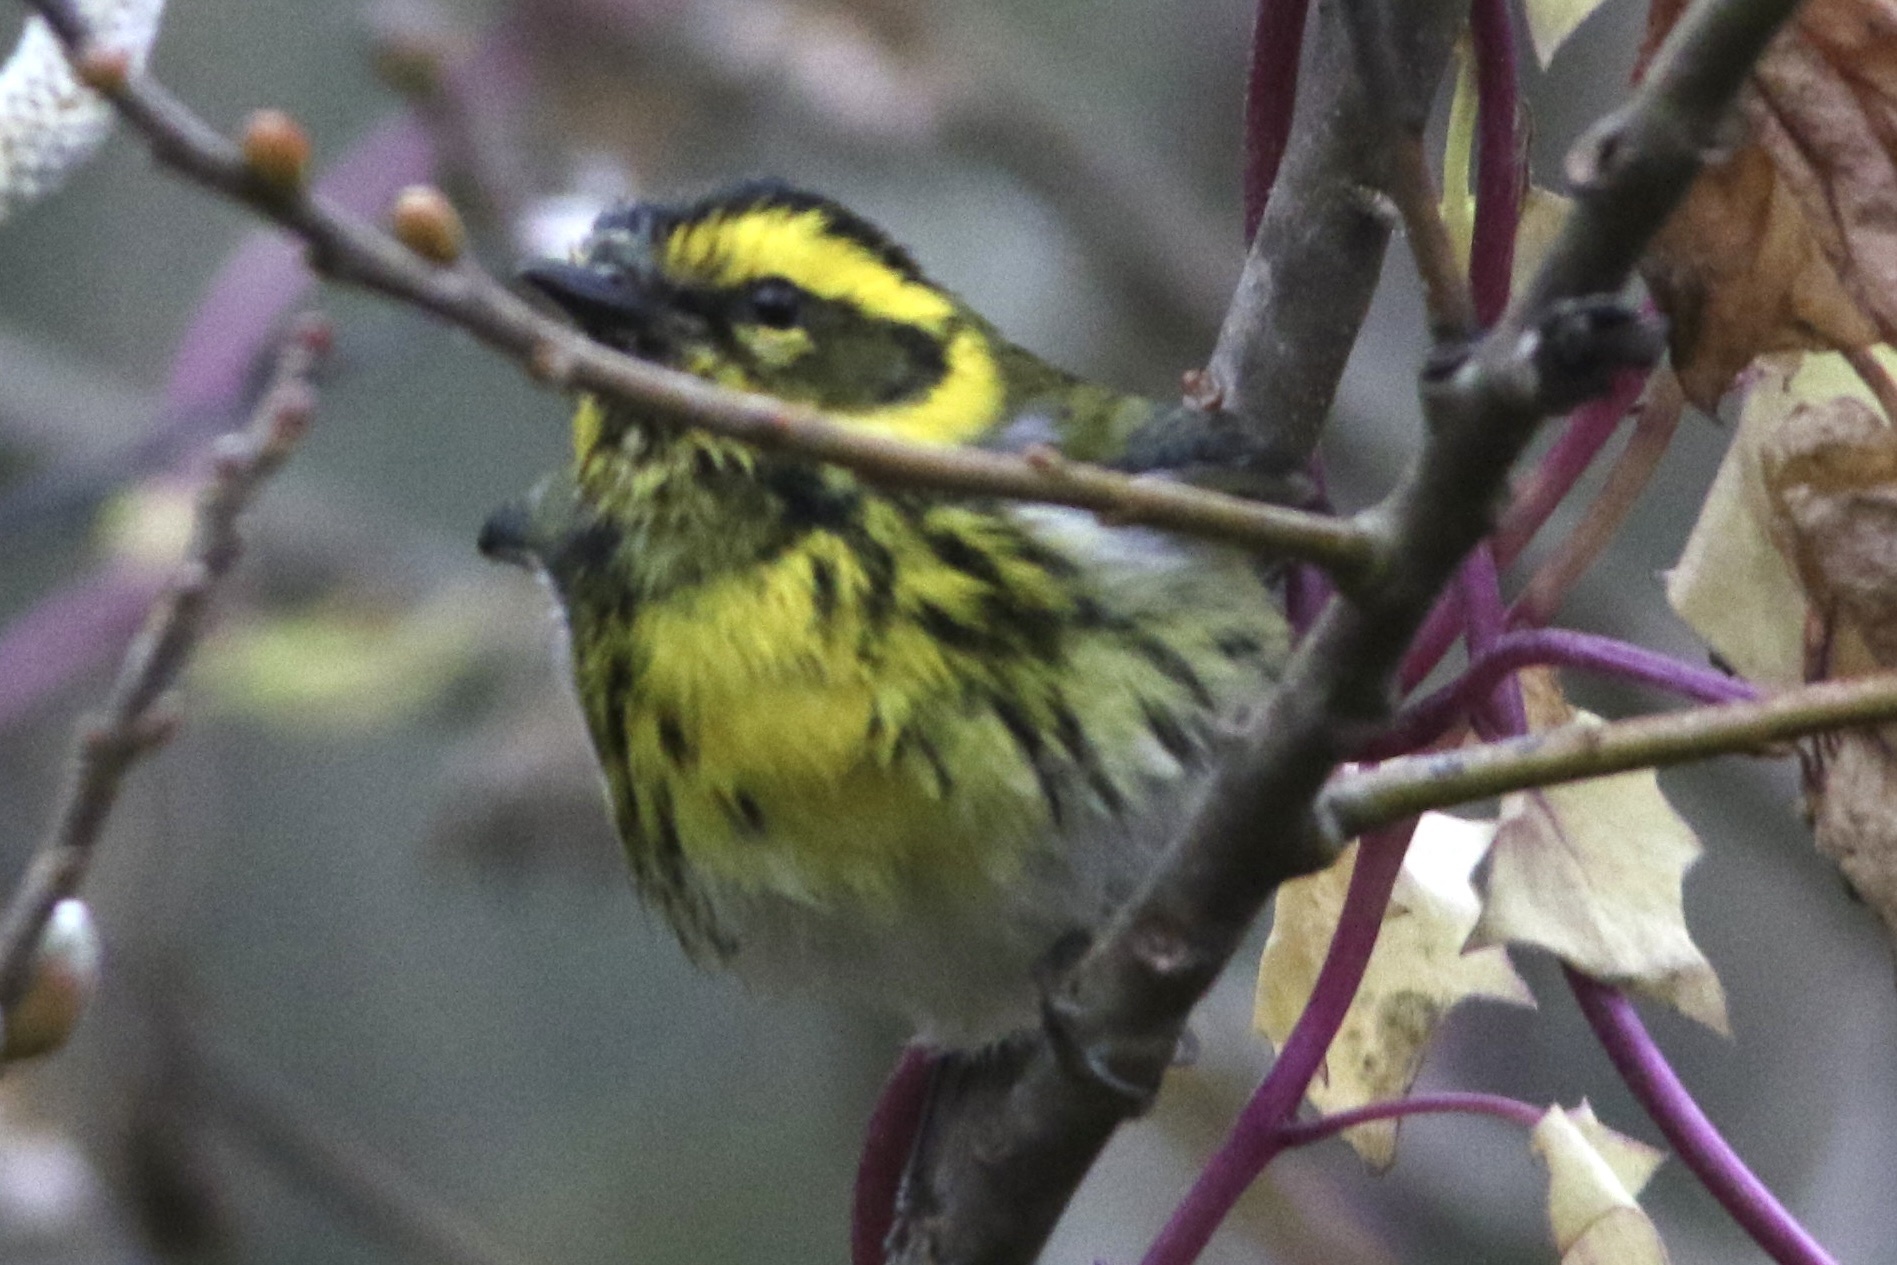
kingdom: Animalia
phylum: Chordata
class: Aves
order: Passeriformes
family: Parulidae
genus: Setophaga
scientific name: Setophaga townsendi
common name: Townsend's warbler
